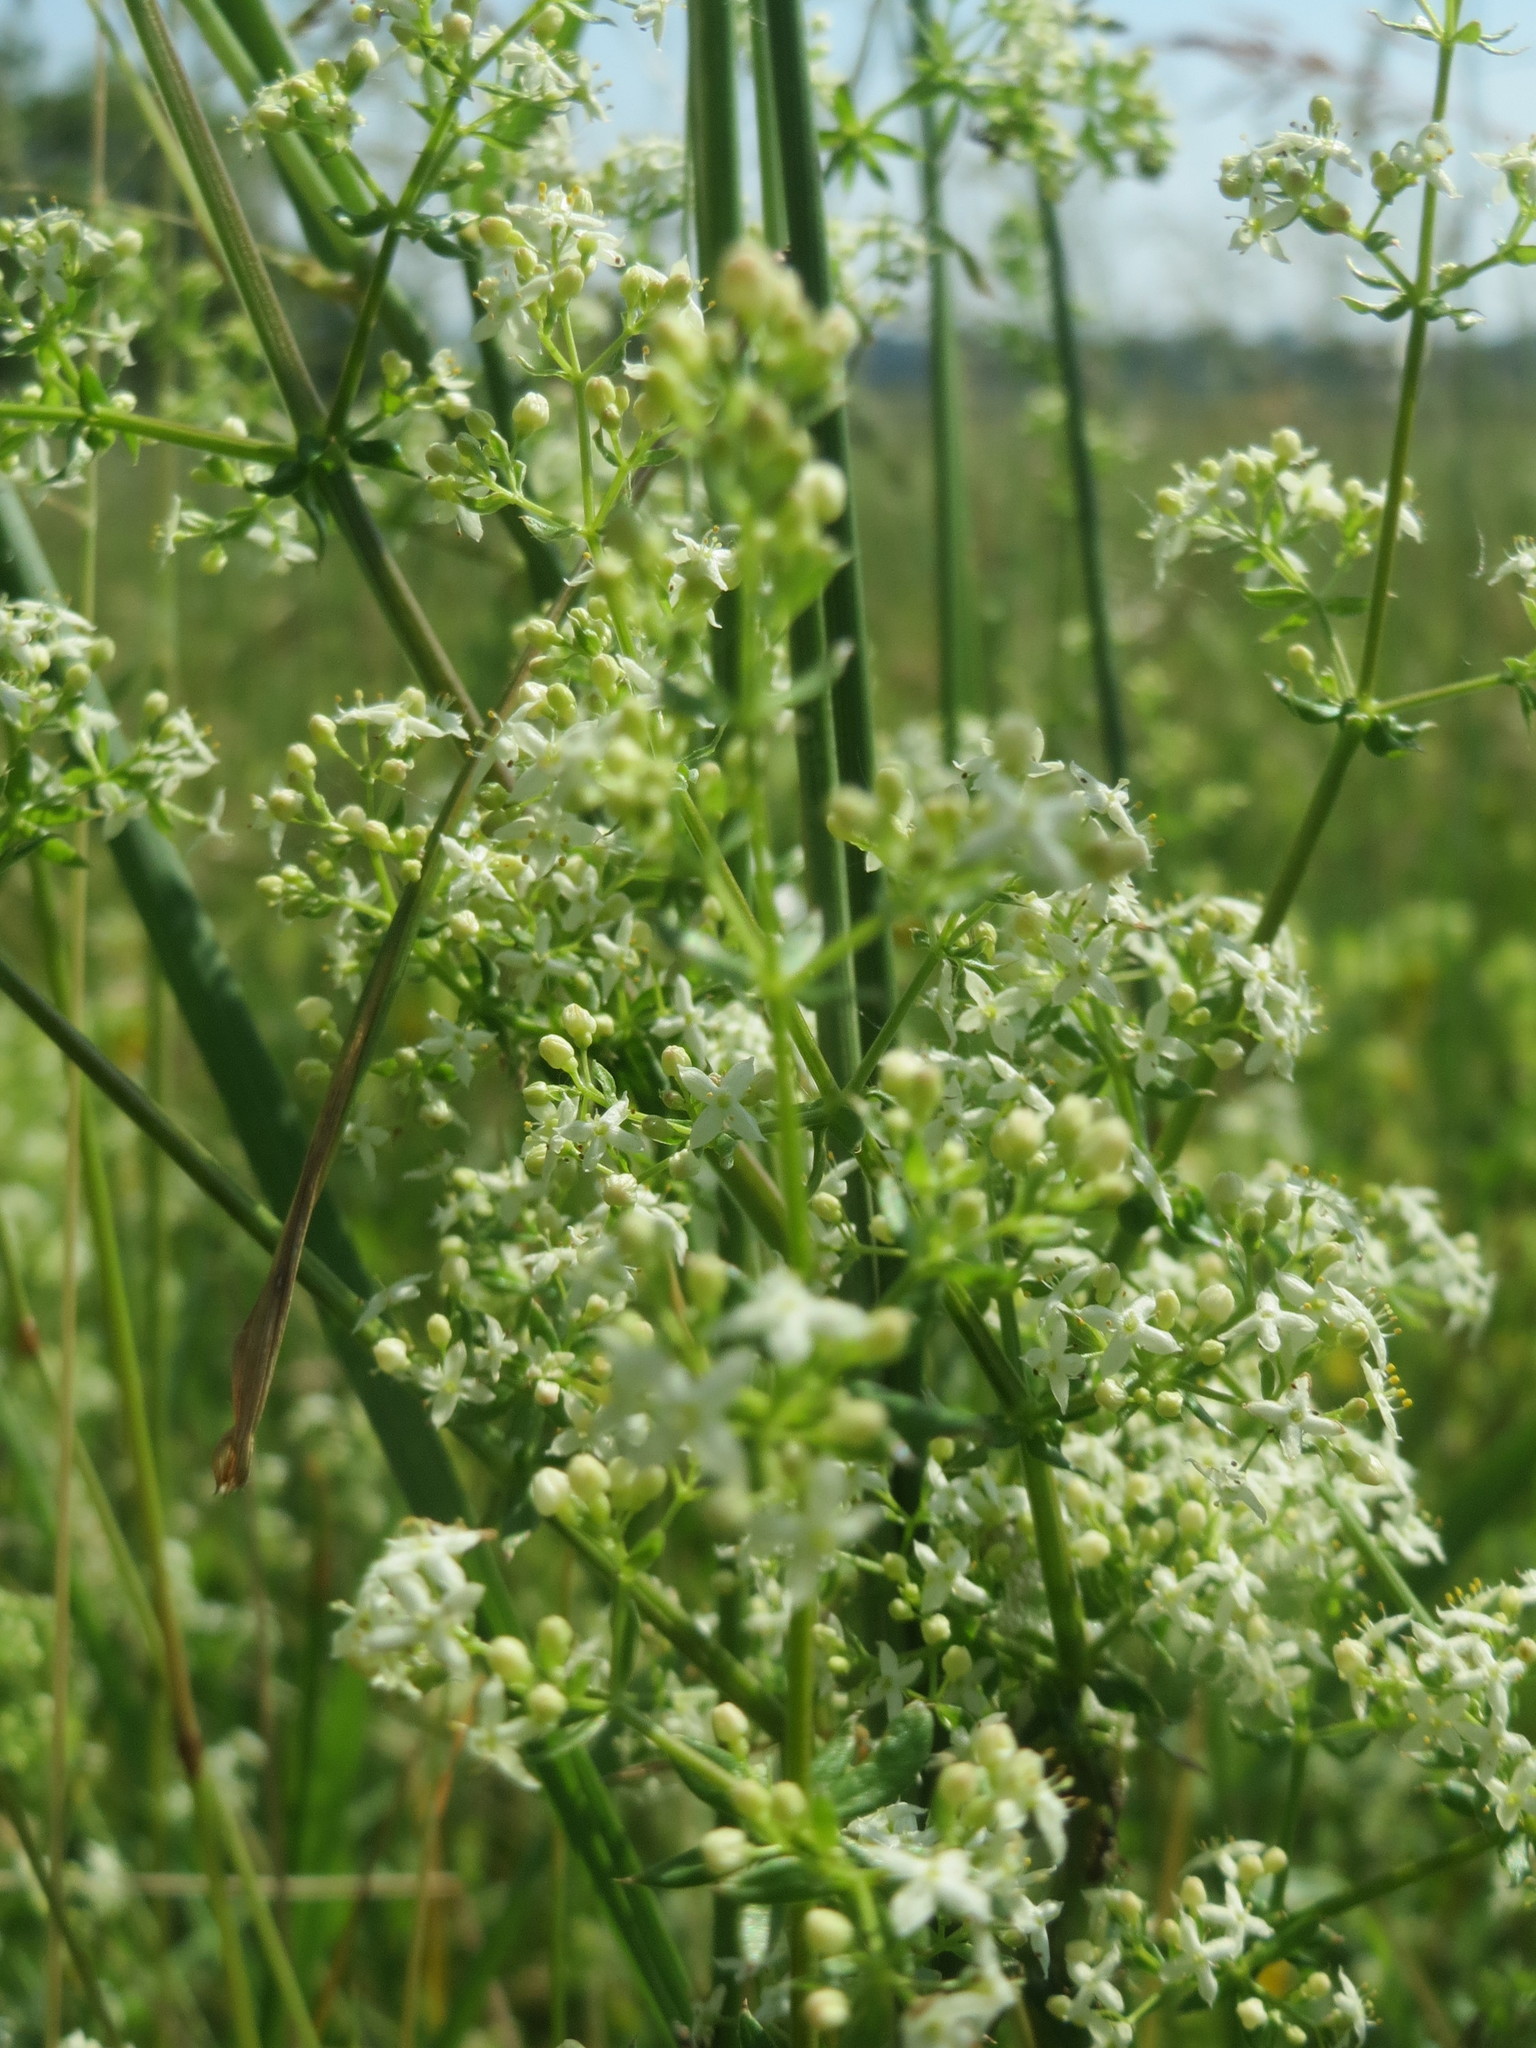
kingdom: Plantae
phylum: Tracheophyta
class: Magnoliopsida
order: Gentianales
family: Rubiaceae
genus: Galium
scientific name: Galium mollugo
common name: Hedge bedstraw
